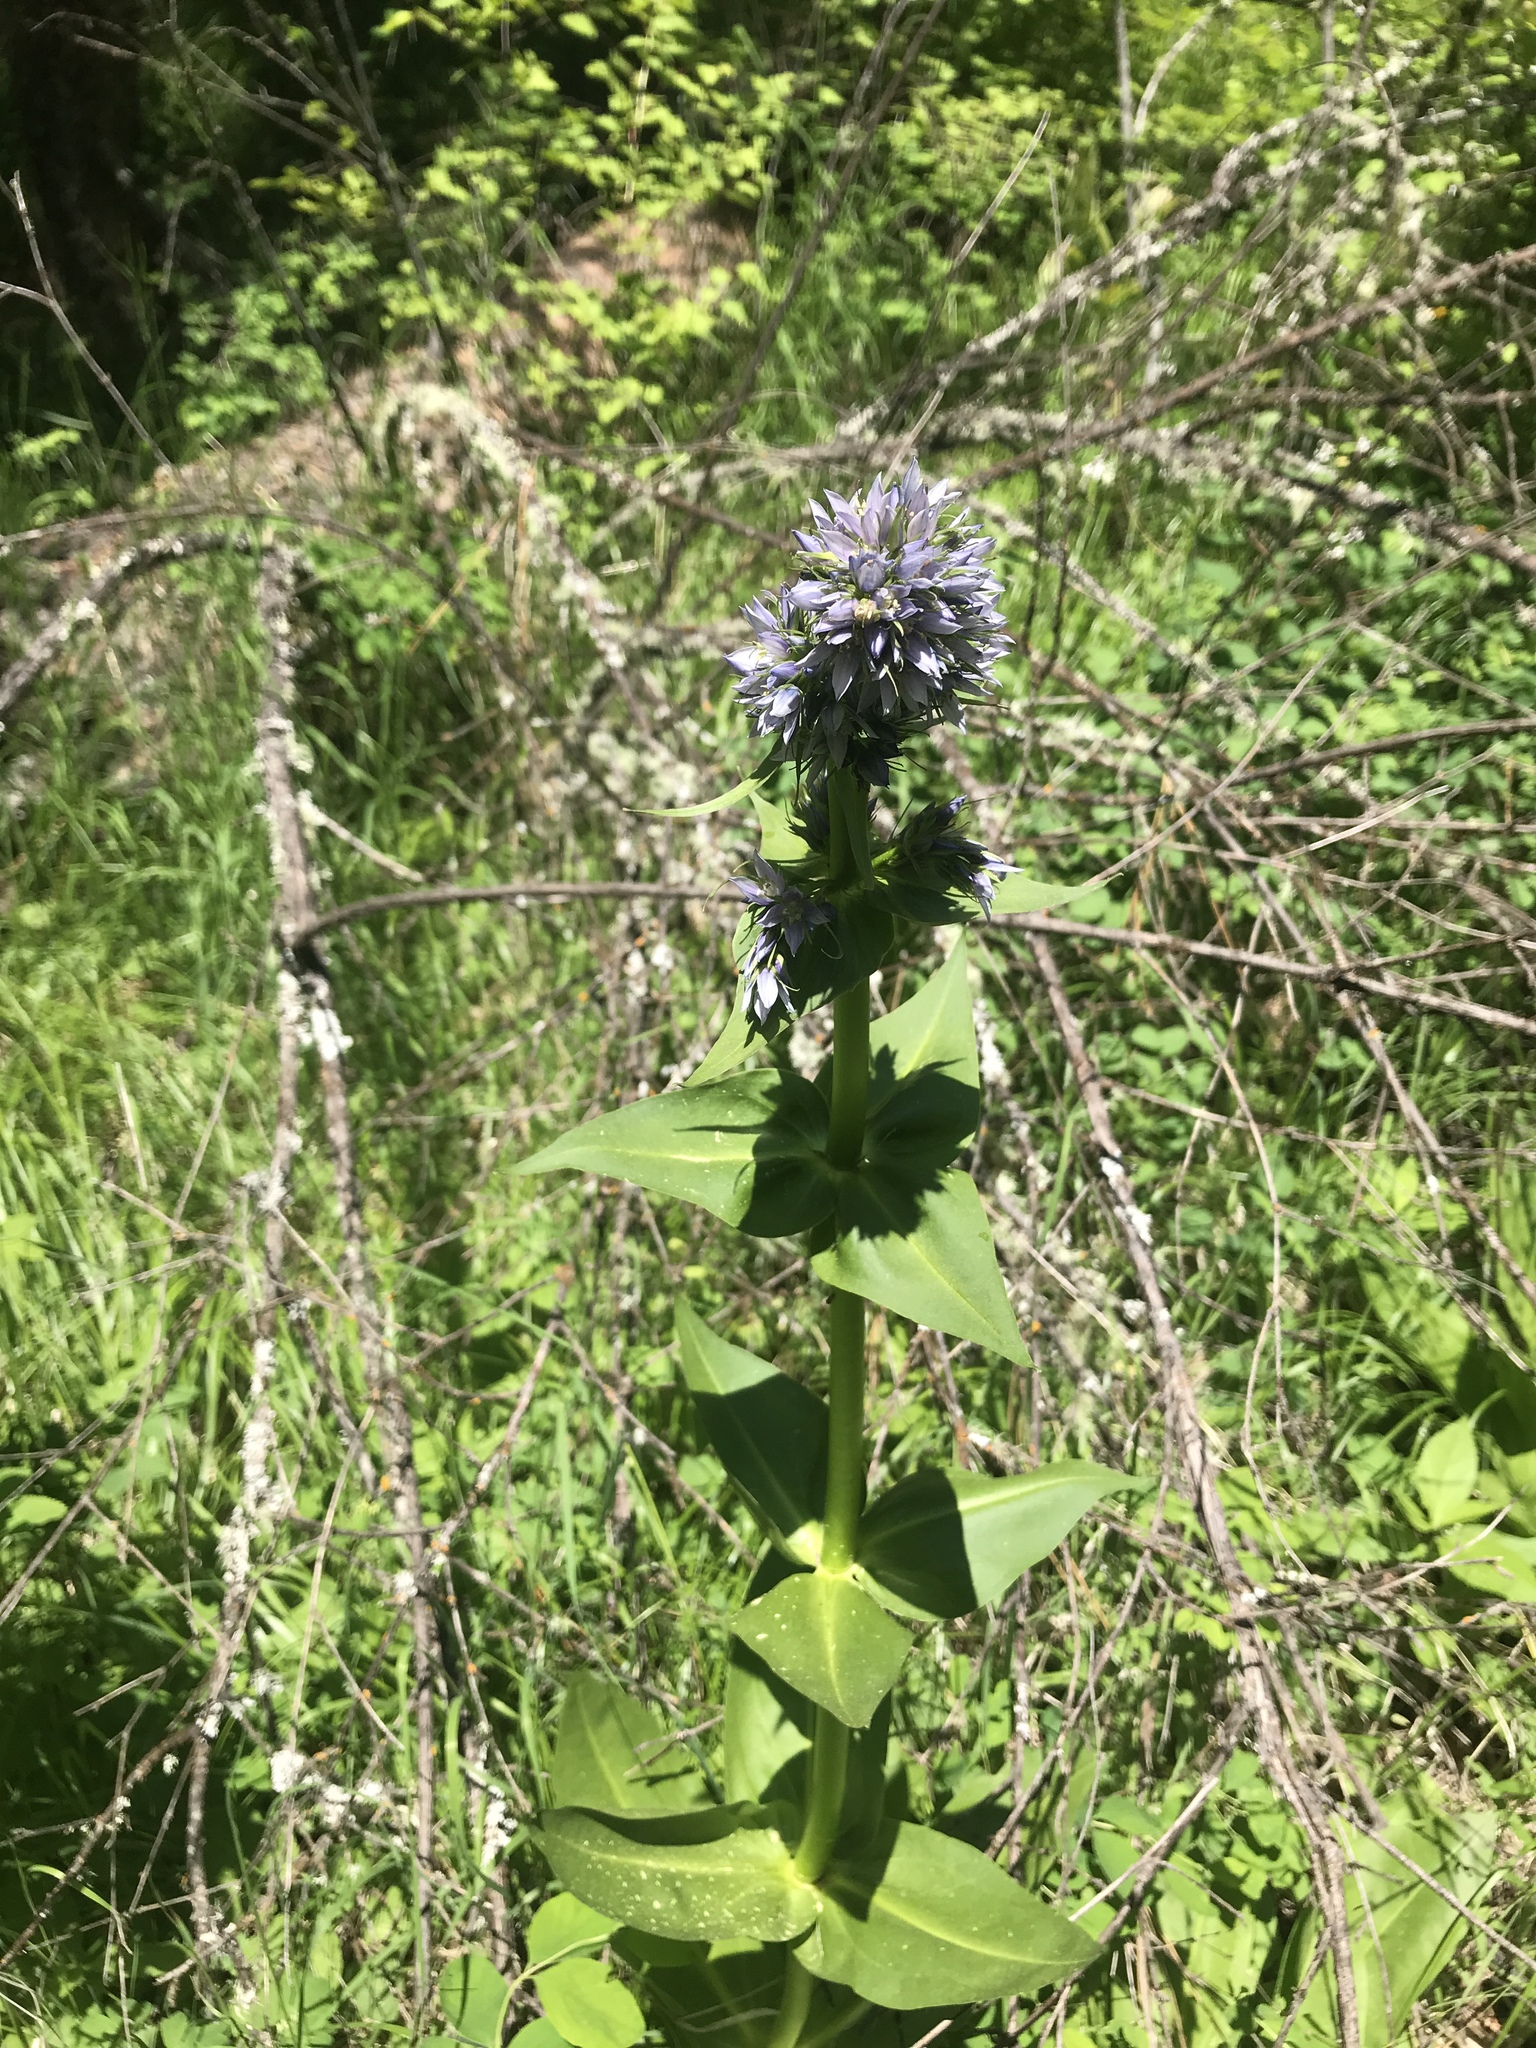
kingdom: Plantae
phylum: Tracheophyta
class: Magnoliopsida
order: Gentianales
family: Gentianaceae
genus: Frasera
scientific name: Frasera fastigiata
